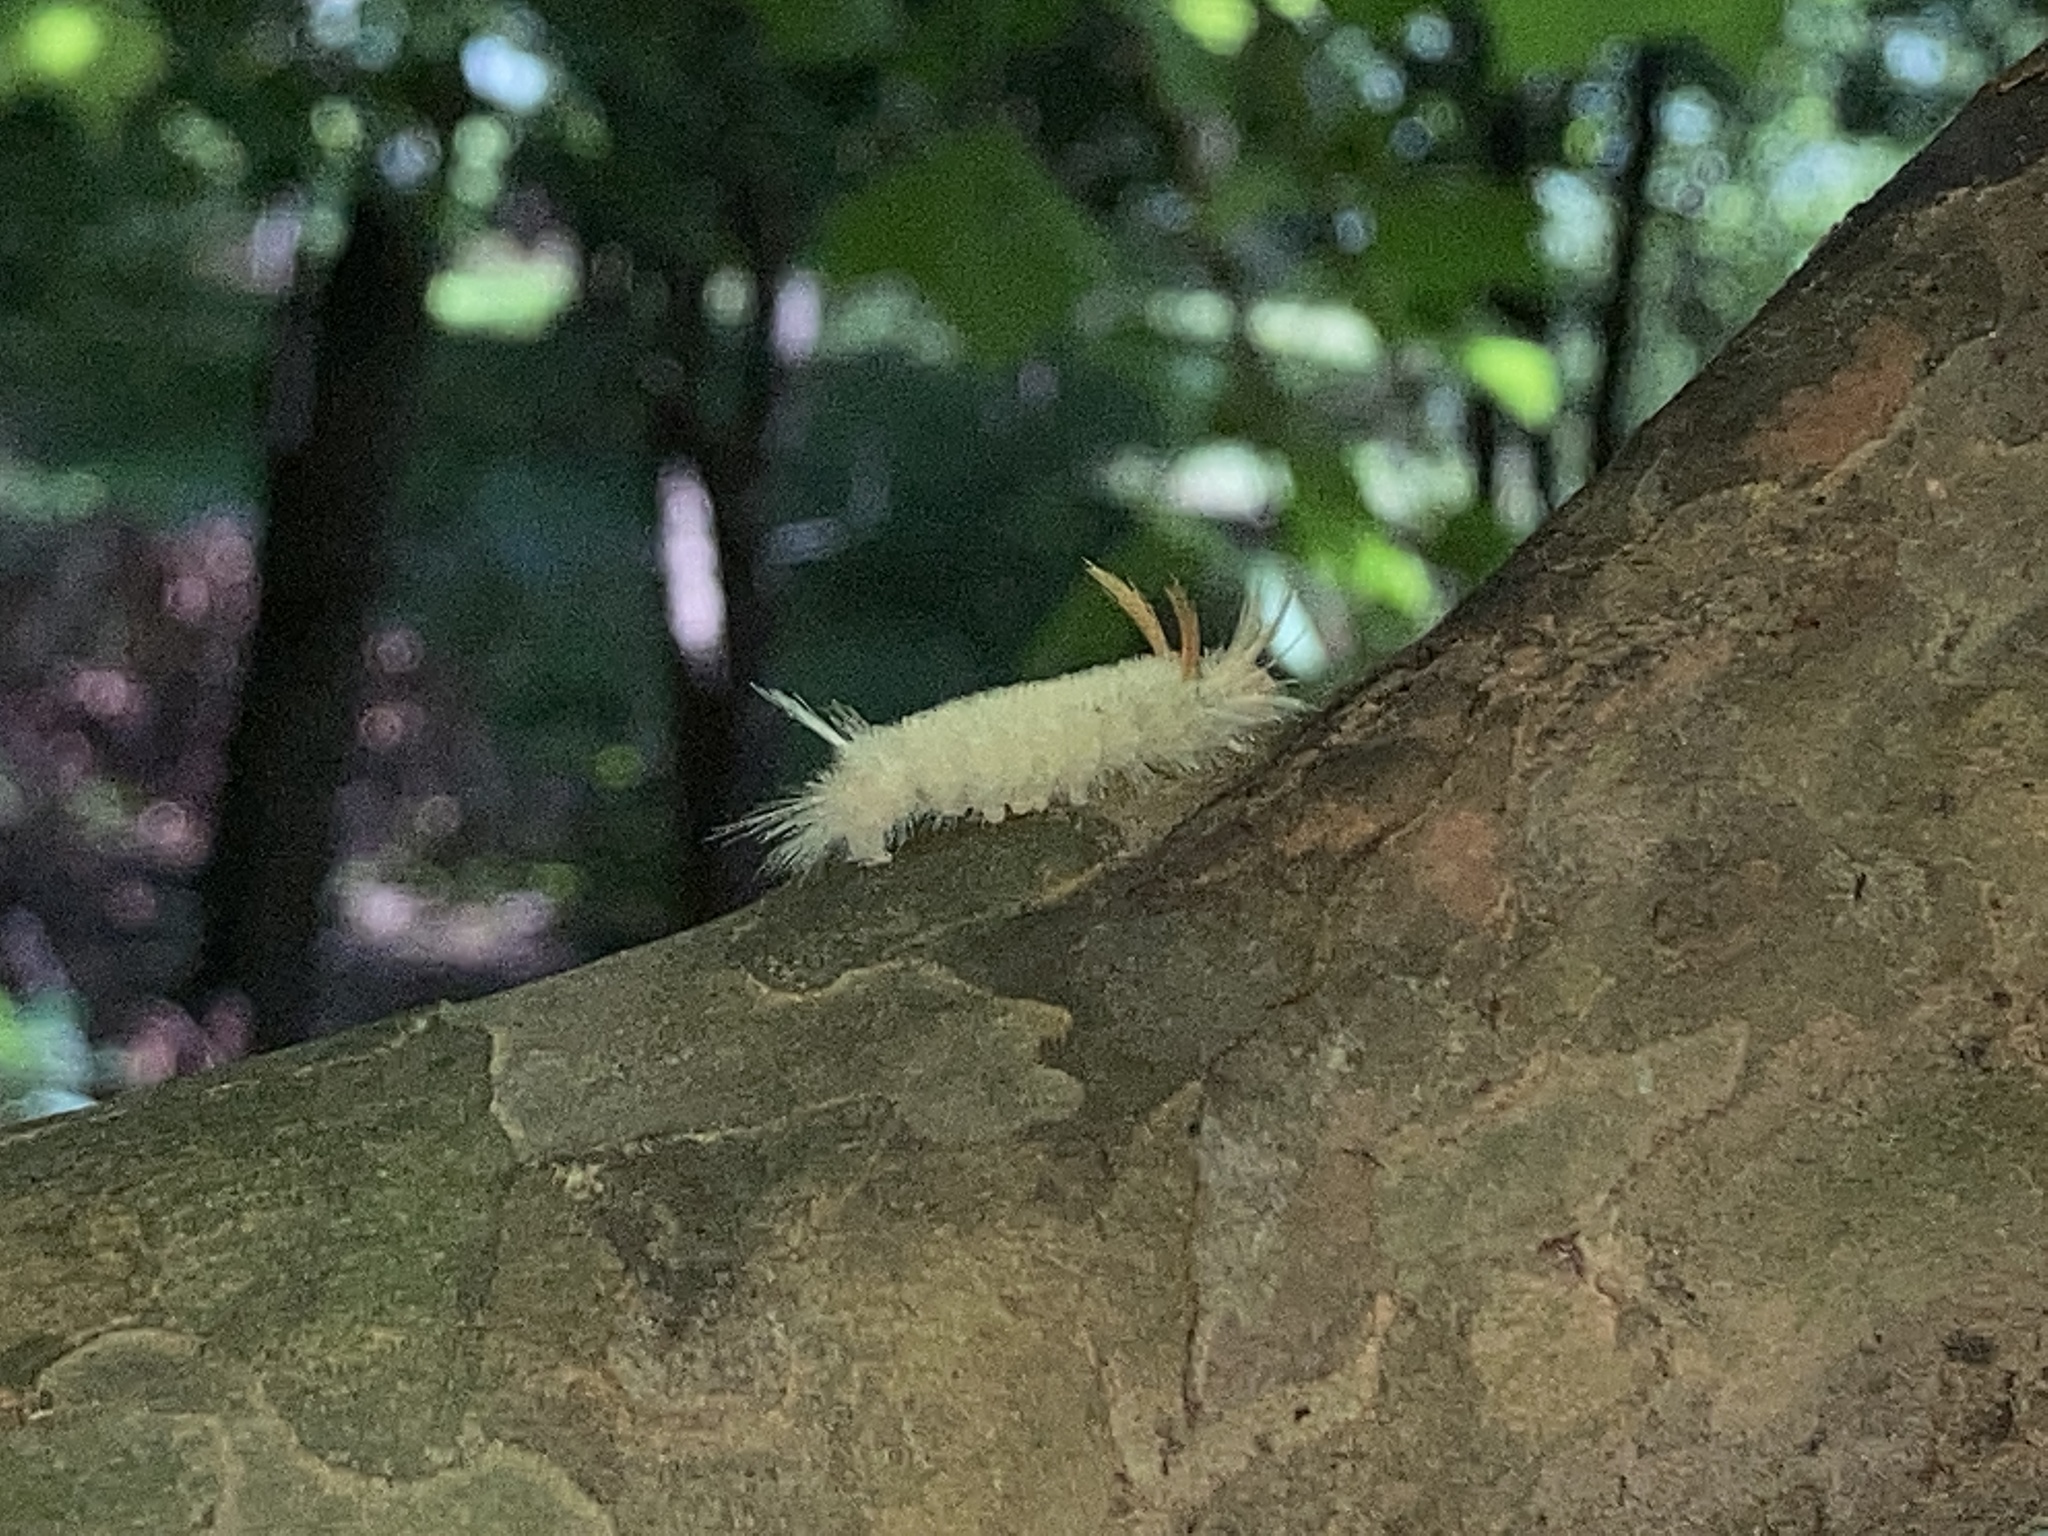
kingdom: Animalia
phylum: Arthropoda
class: Insecta
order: Lepidoptera
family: Erebidae
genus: Halysidota
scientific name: Halysidota harrisii
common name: Sycamore tussock moth
